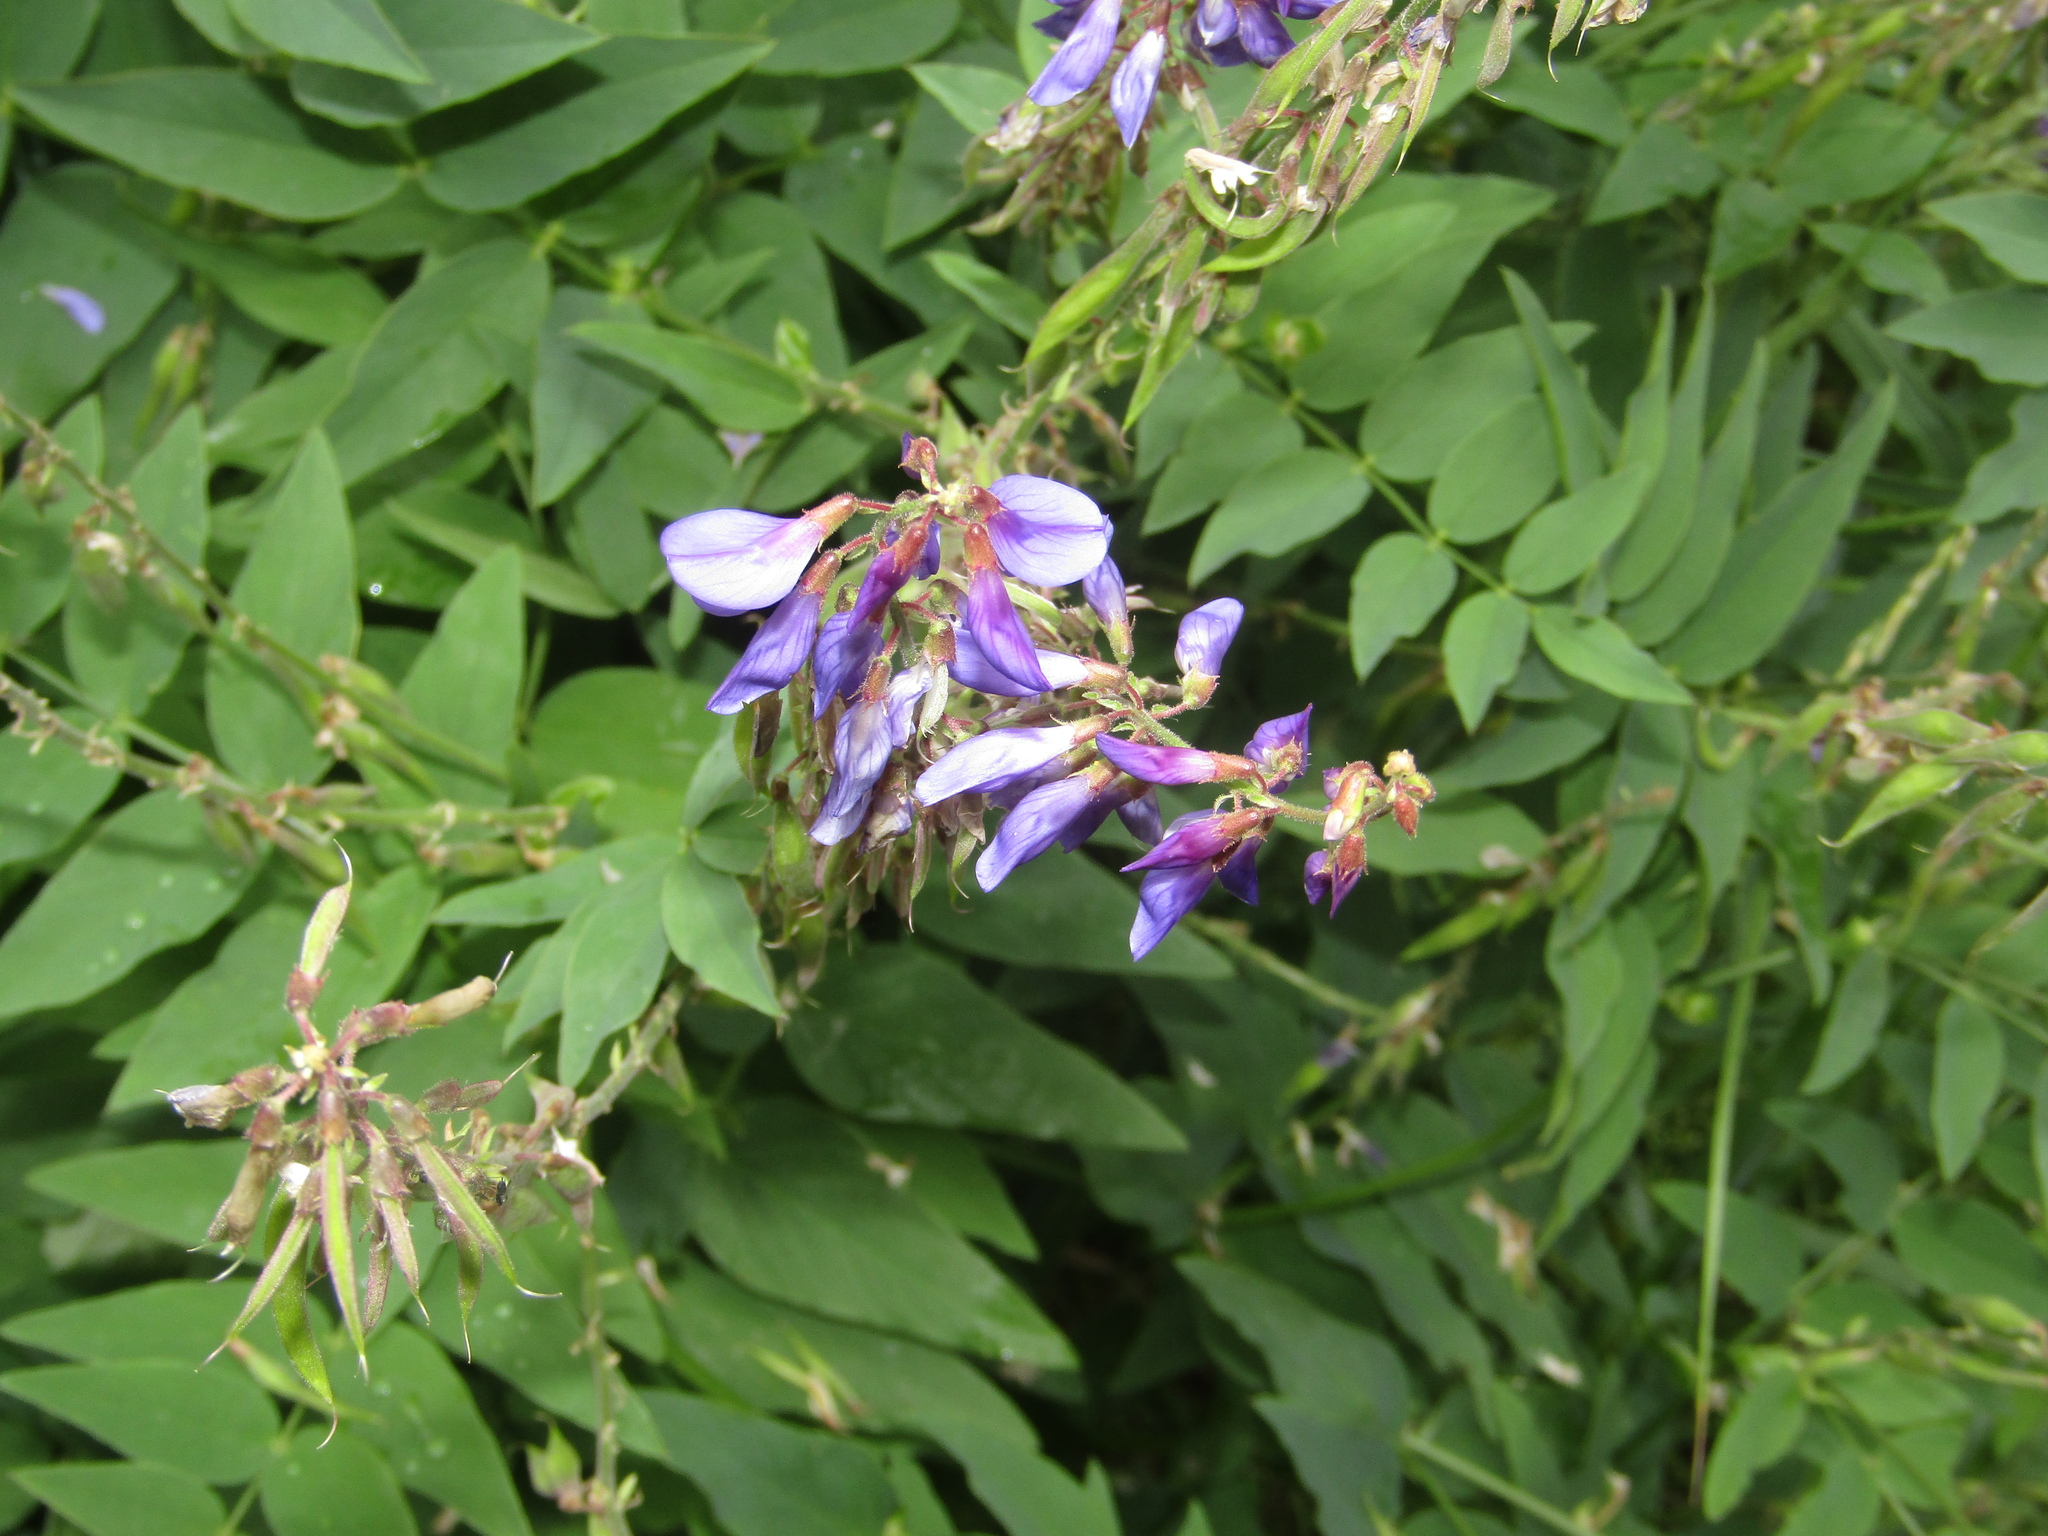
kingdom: Plantae
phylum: Tracheophyta
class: Magnoliopsida
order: Fabales
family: Fabaceae
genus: Galega
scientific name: Galega orientalis
